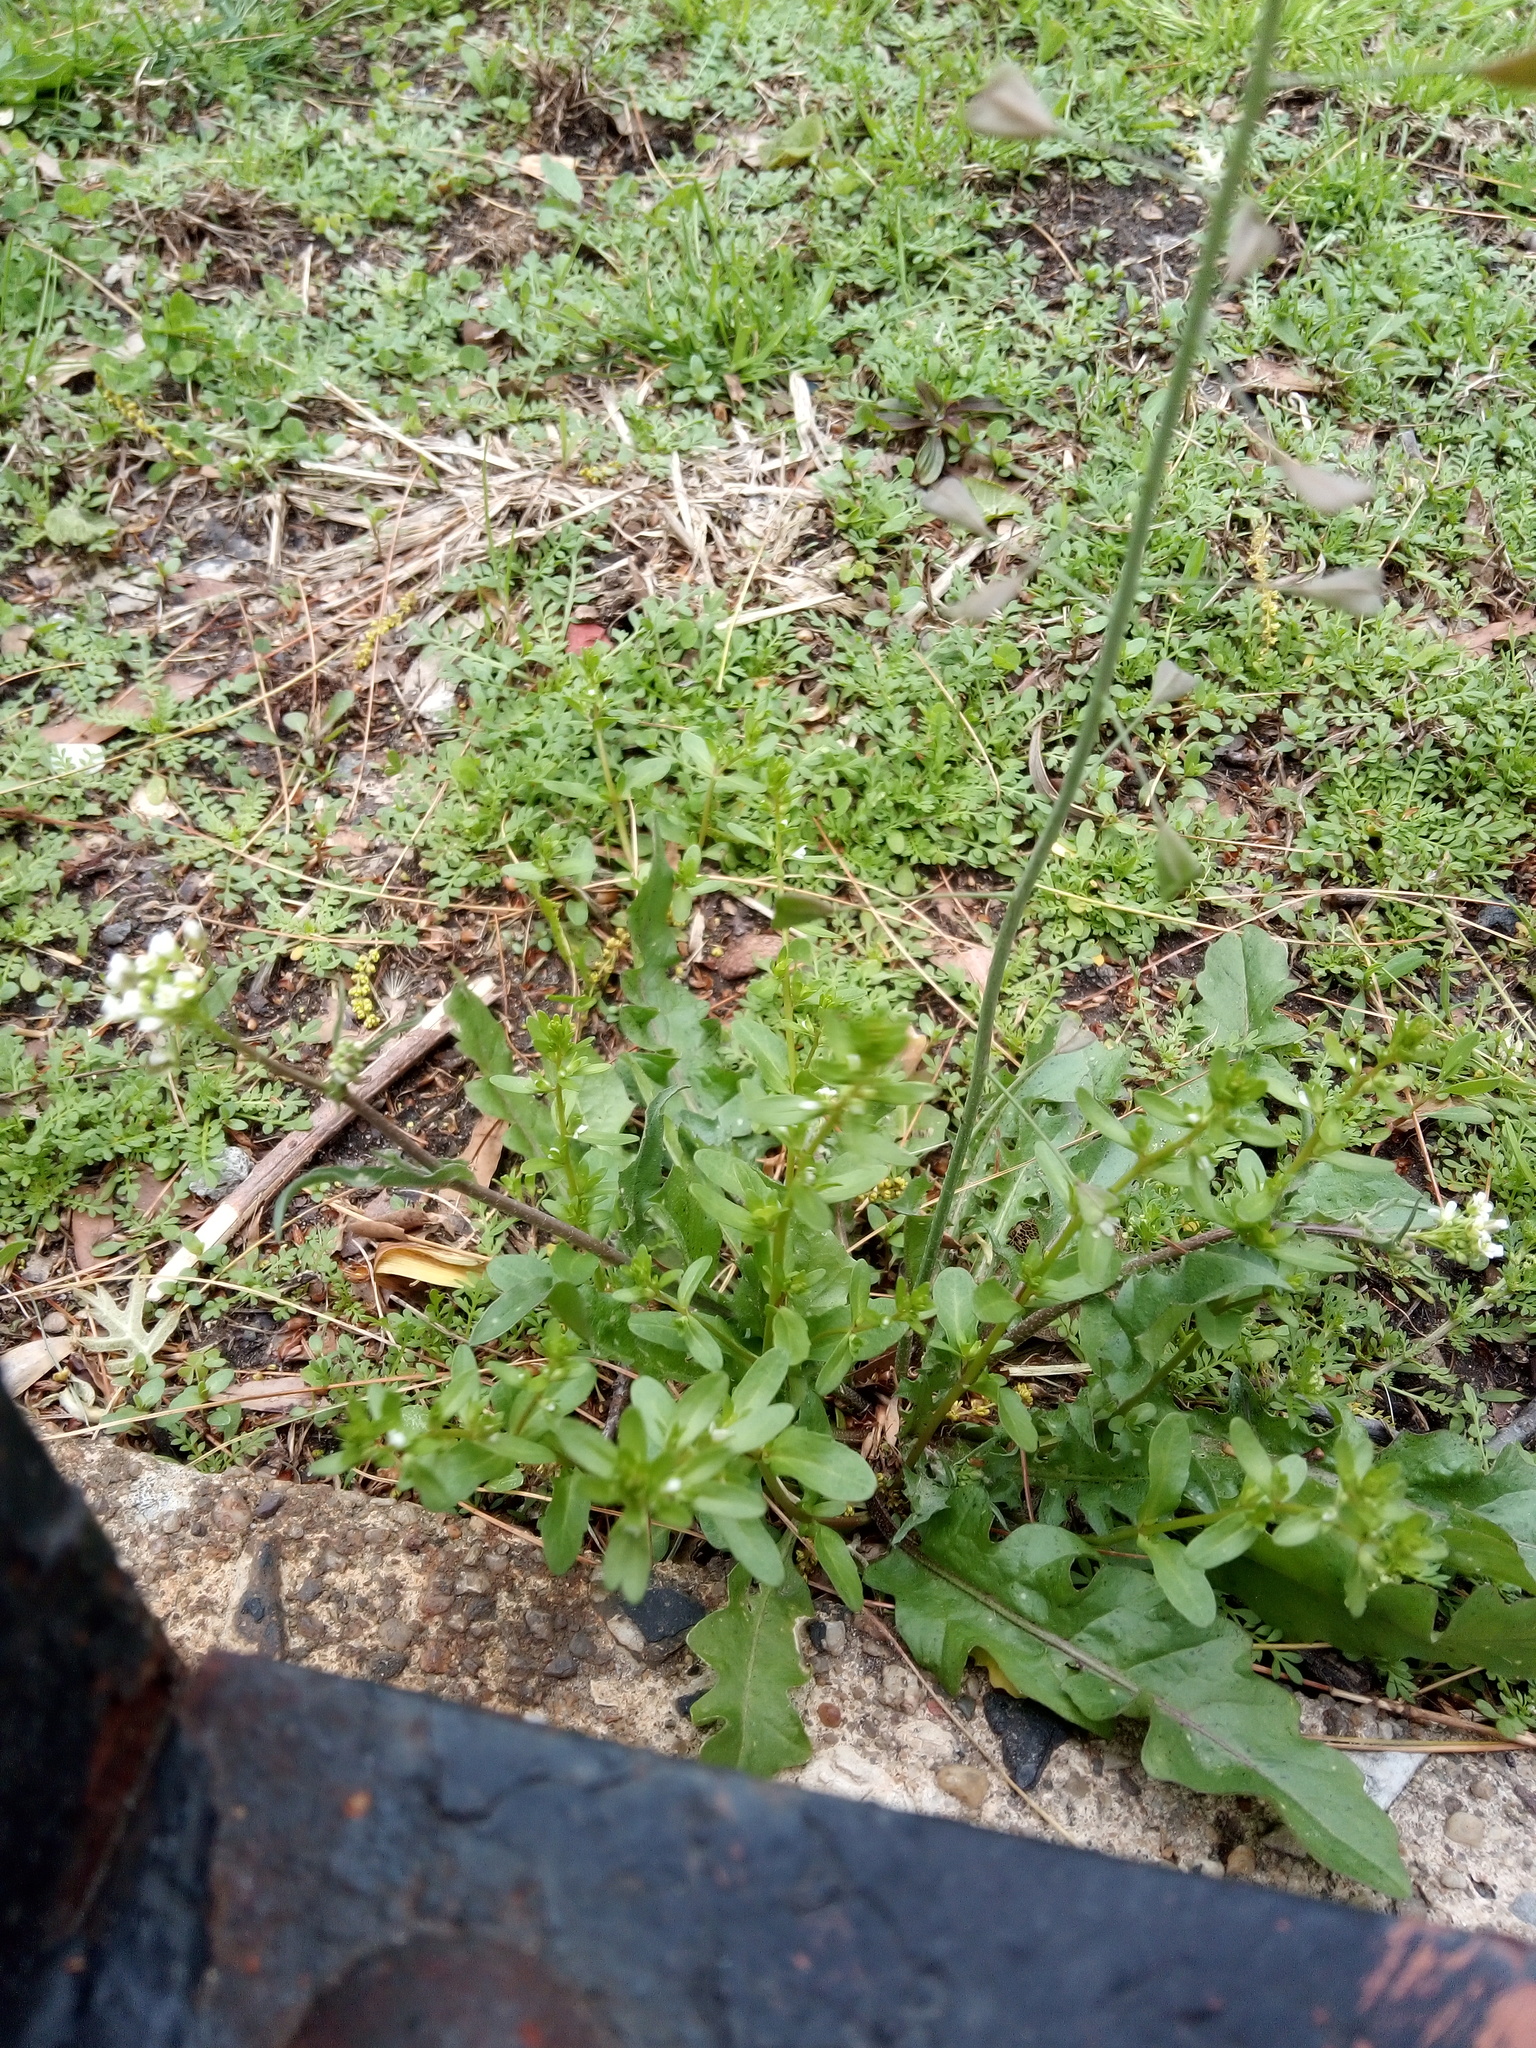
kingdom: Plantae
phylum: Tracheophyta
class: Magnoliopsida
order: Brassicales
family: Brassicaceae
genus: Capsella
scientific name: Capsella bursa-pastoris
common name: Shepherd's purse
